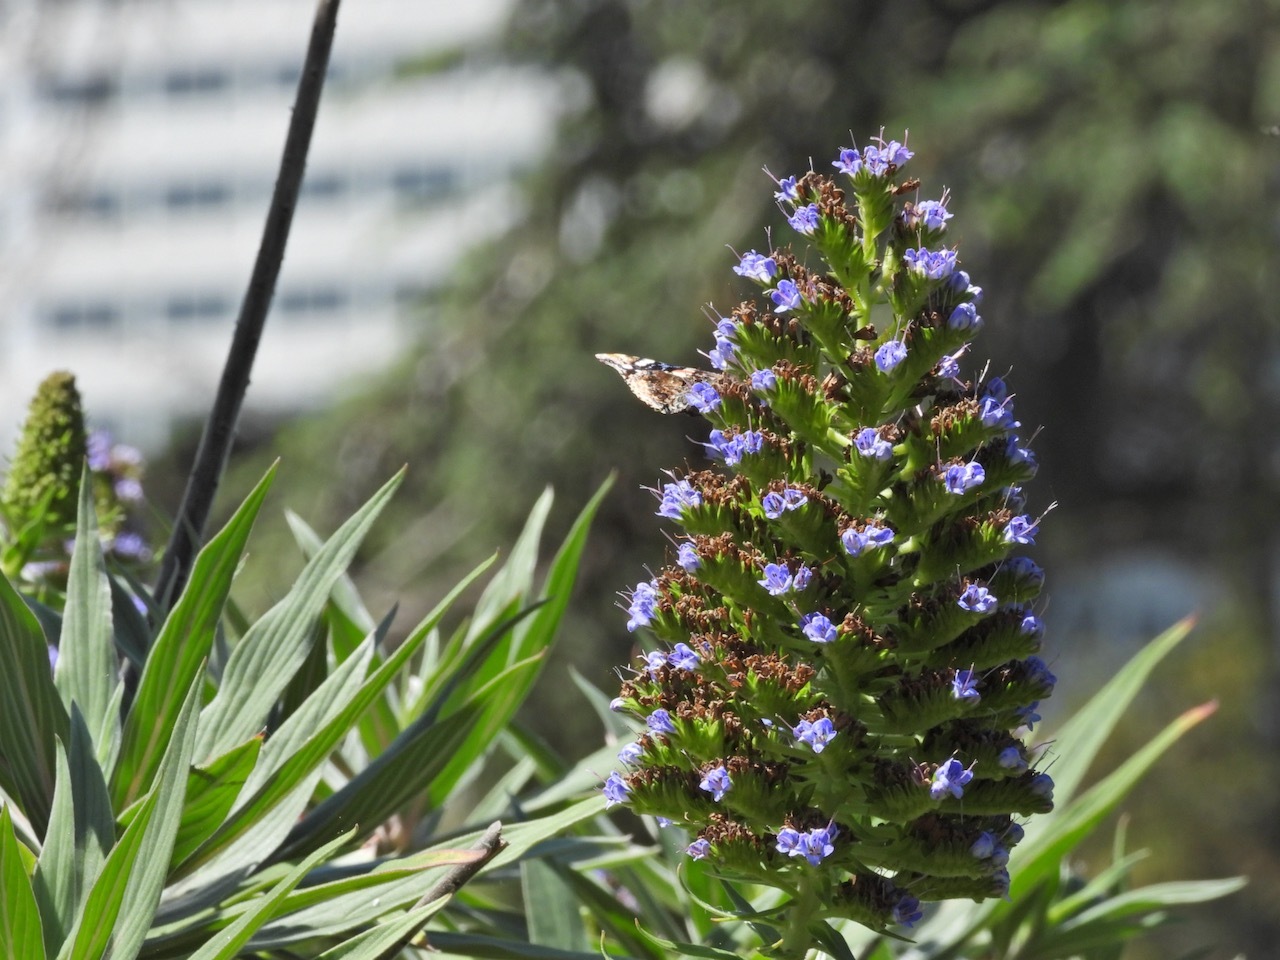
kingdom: Animalia
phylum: Arthropoda
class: Insecta
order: Lepidoptera
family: Nymphalidae
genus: Vanessa
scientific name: Vanessa atalanta
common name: Red admiral
